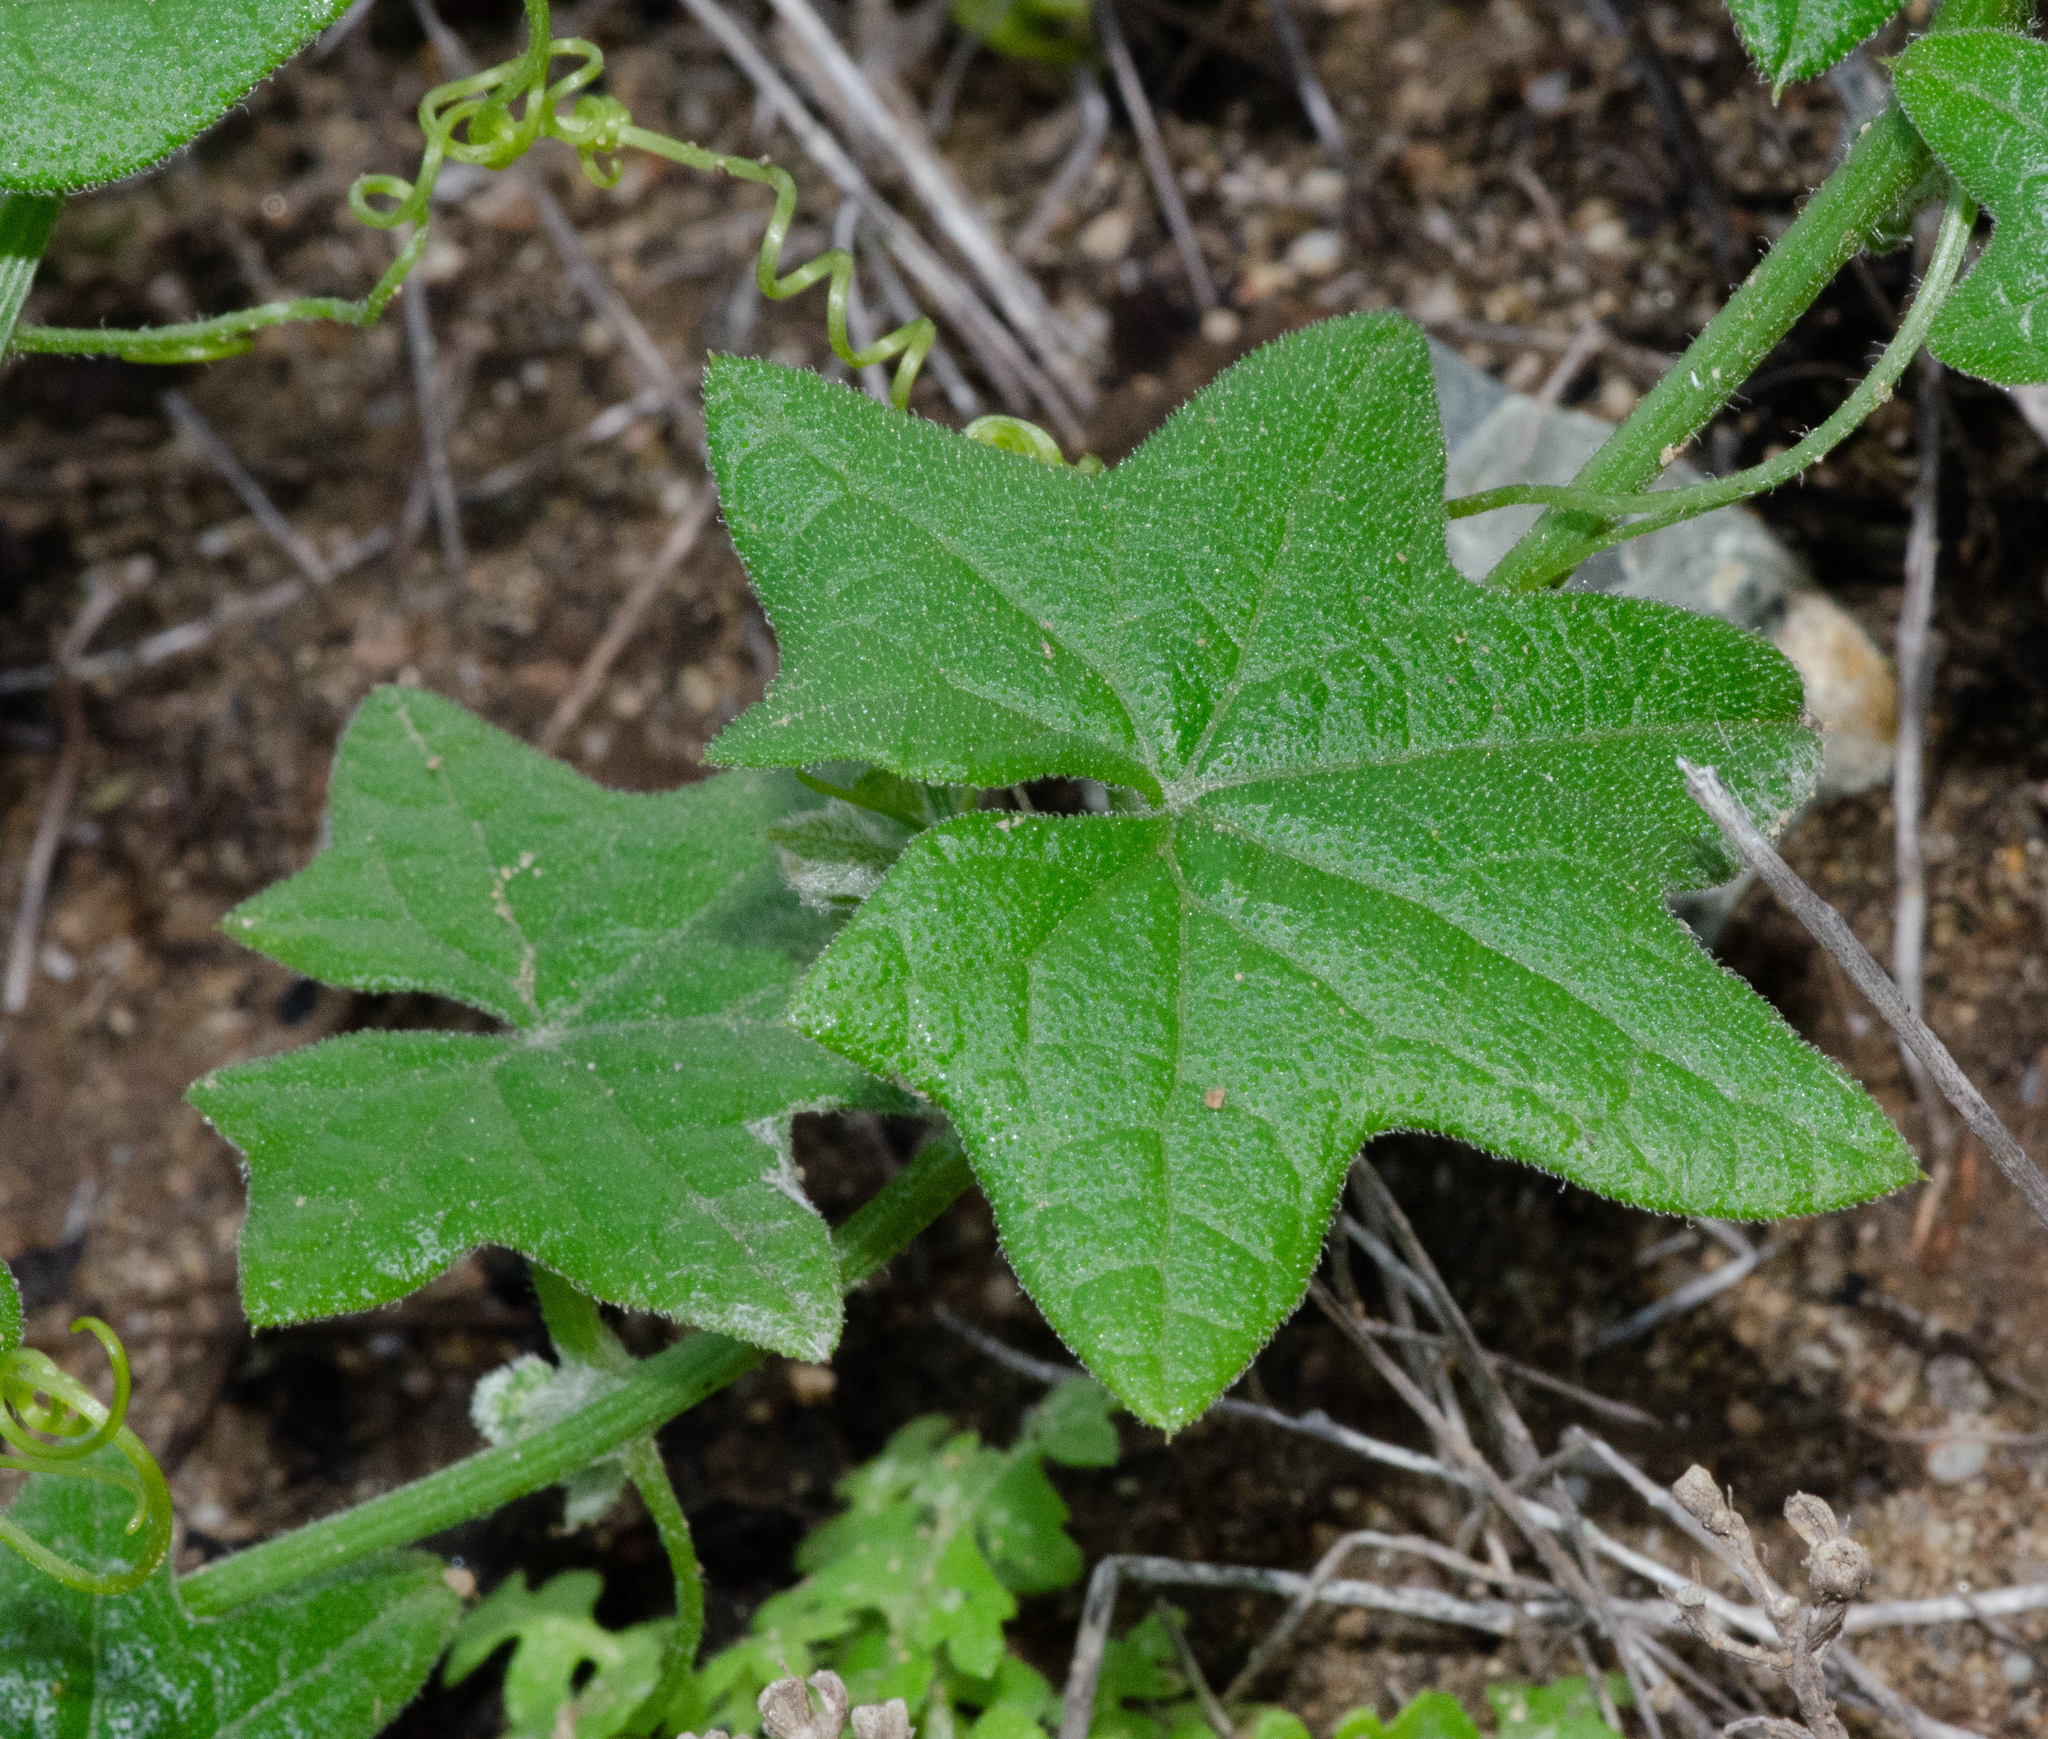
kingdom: Plantae
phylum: Tracheophyta
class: Magnoliopsida
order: Cucurbitales
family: Cucurbitaceae
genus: Marah
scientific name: Marah macrocarpa
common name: Cucamonga manroot
